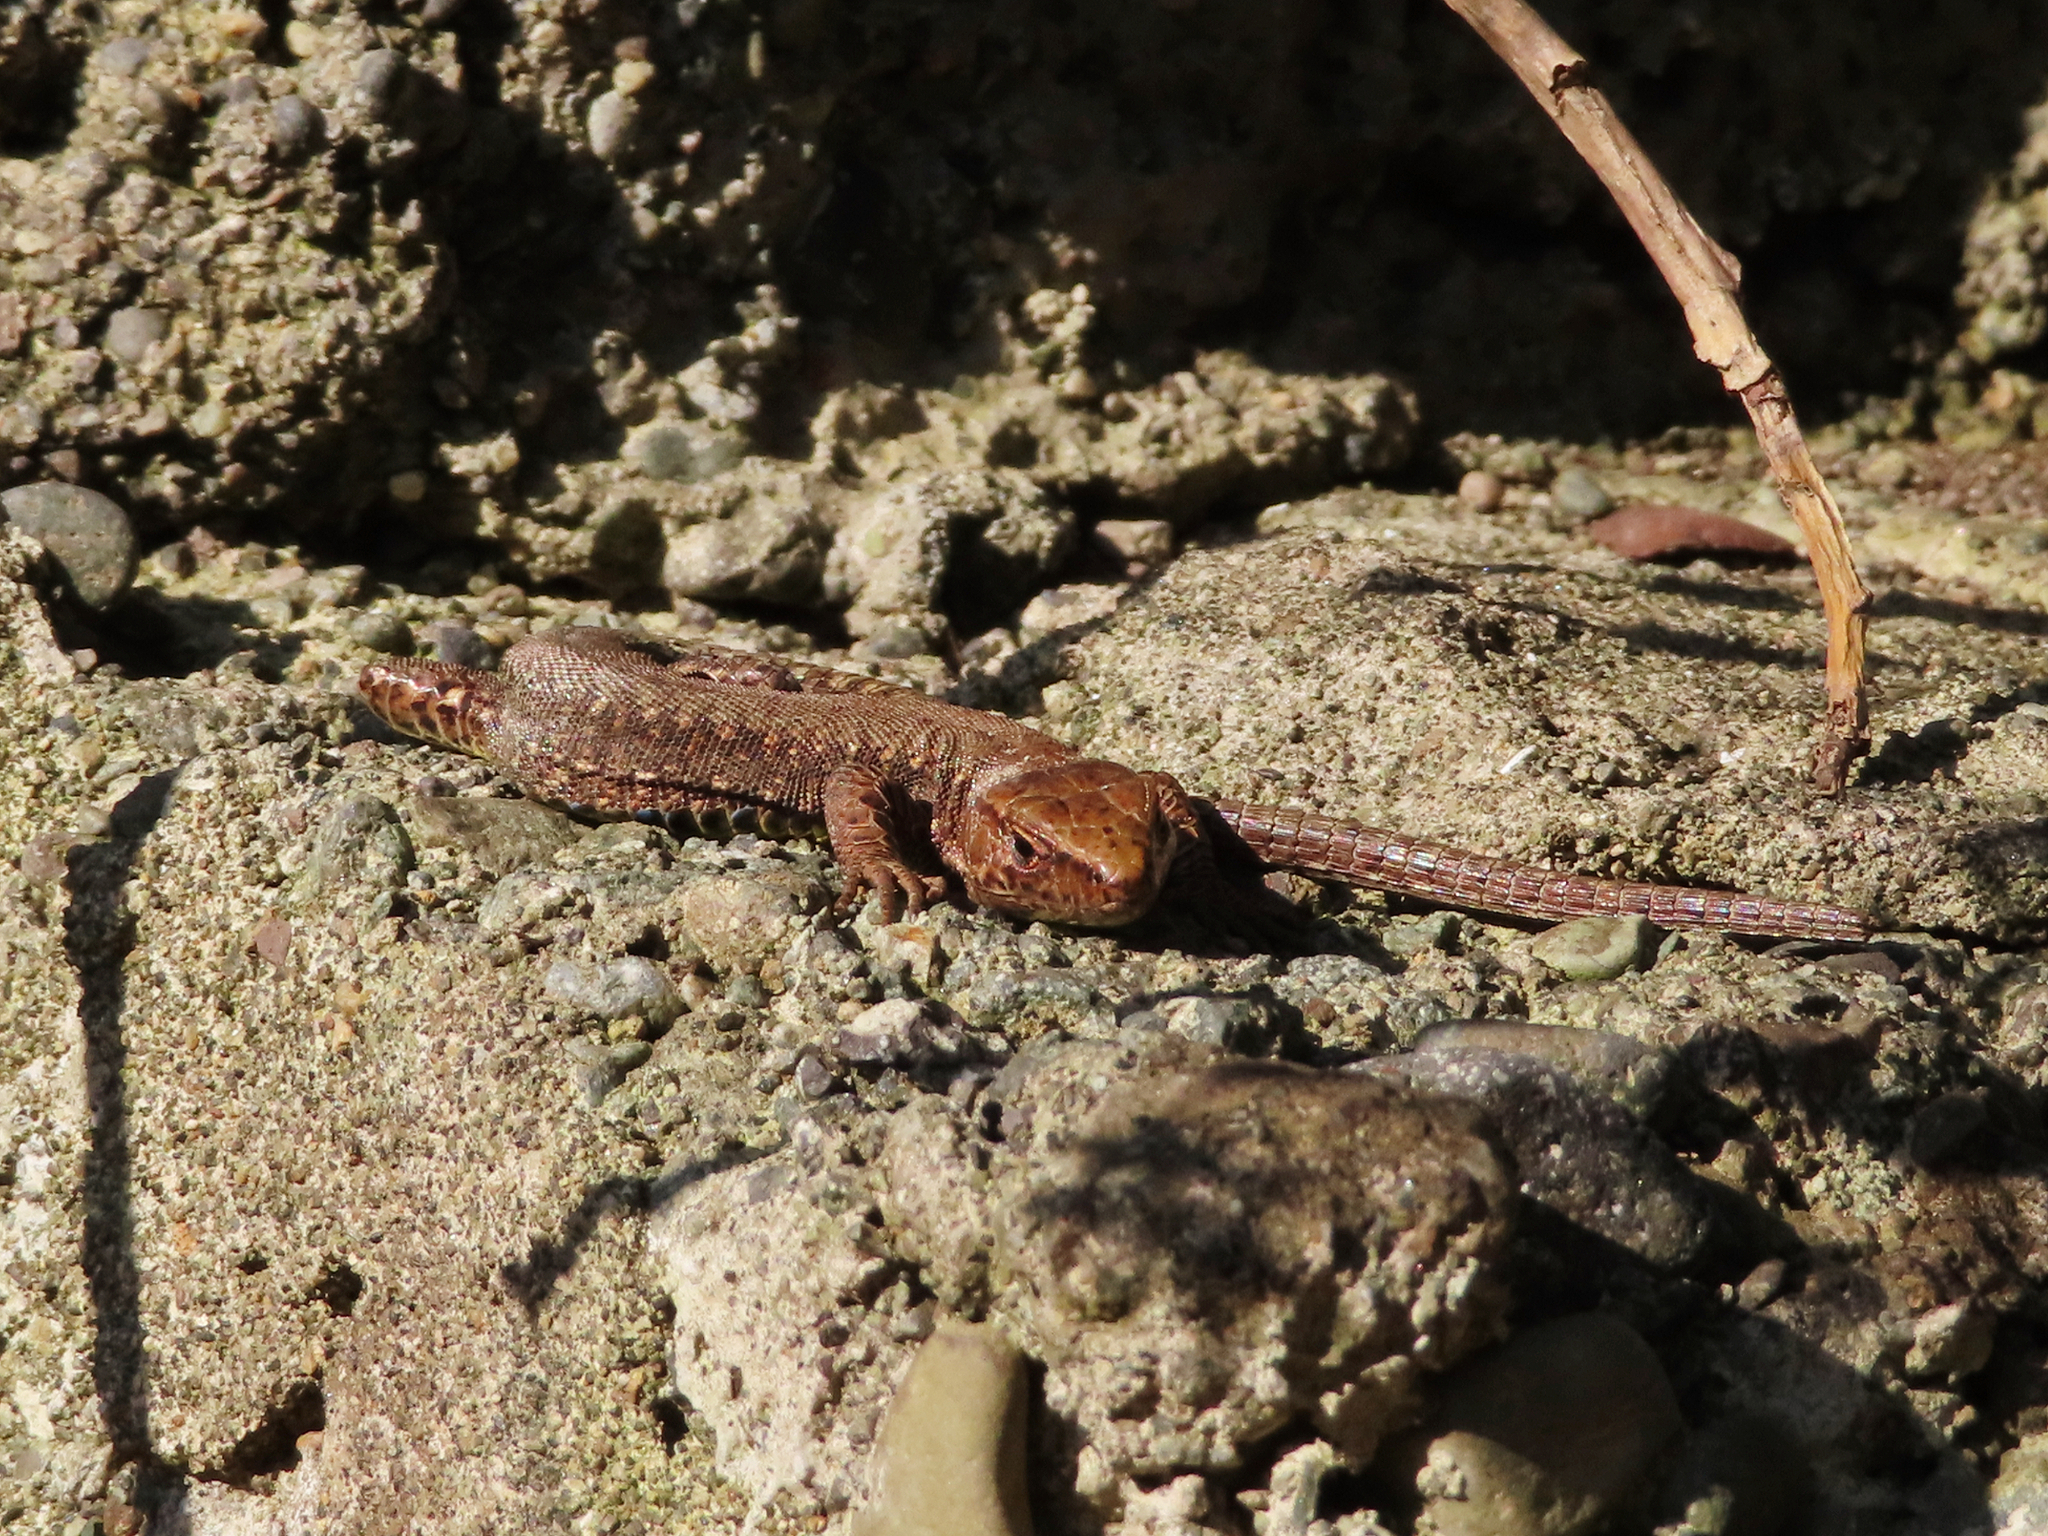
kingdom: Animalia
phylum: Chordata
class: Squamata
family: Lacertidae
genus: Darevskia
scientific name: Darevskia derjugini
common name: Derjugin's lizard
